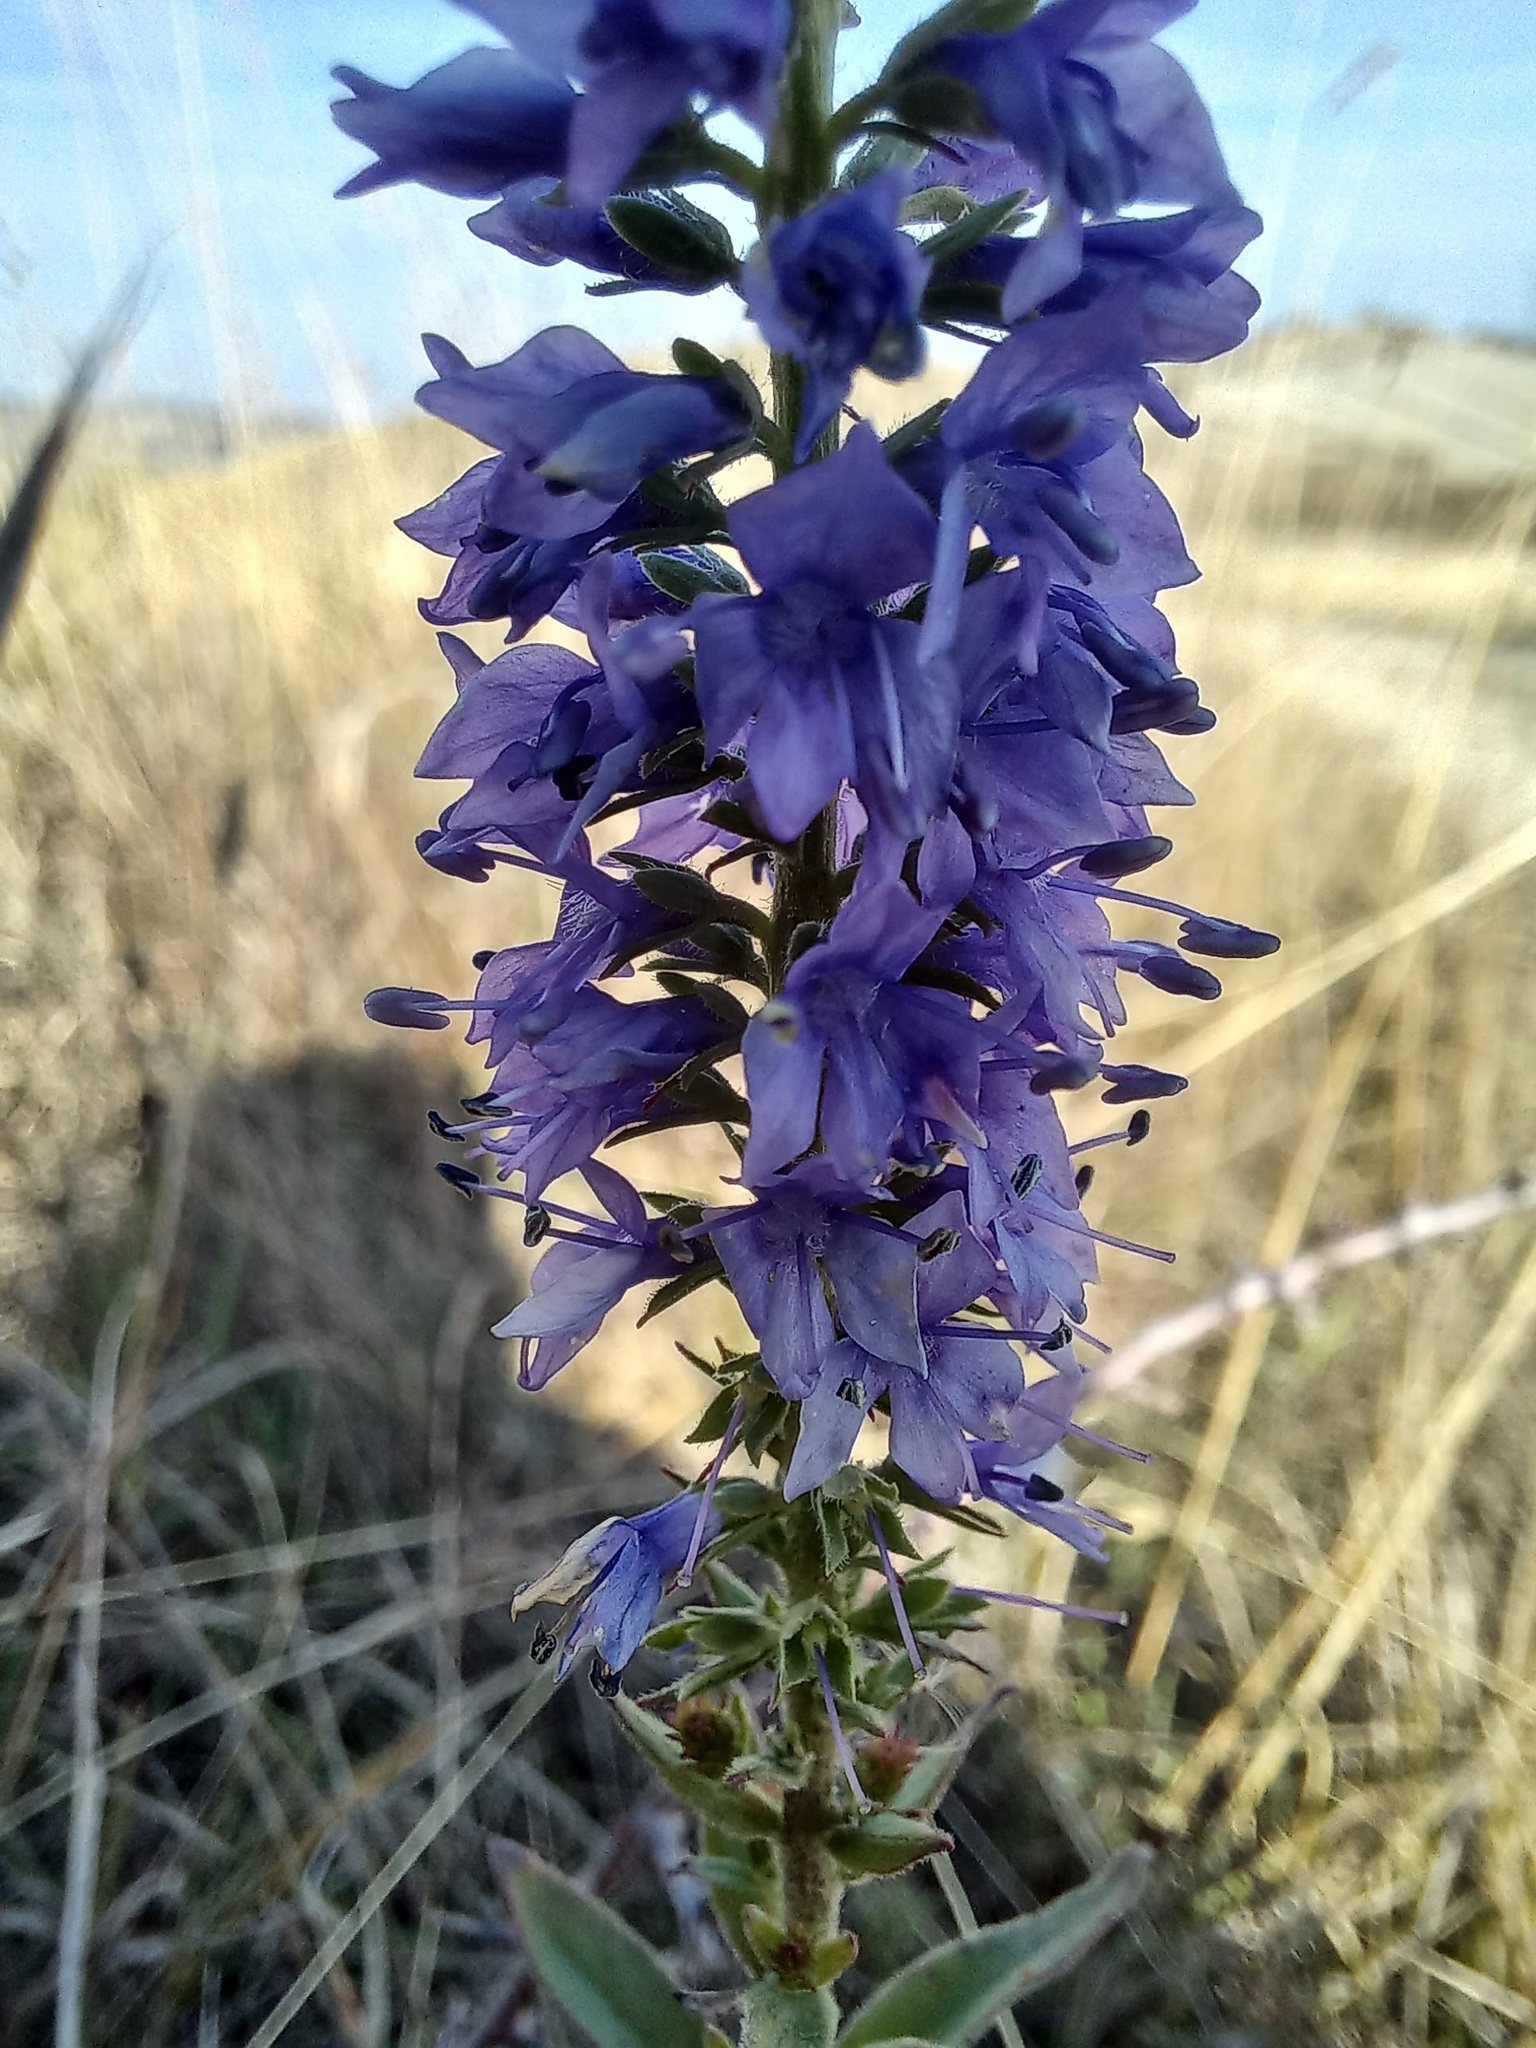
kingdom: Plantae
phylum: Tracheophyta
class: Magnoliopsida
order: Lamiales
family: Plantaginaceae
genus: Veronica
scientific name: Veronica barrelieri
